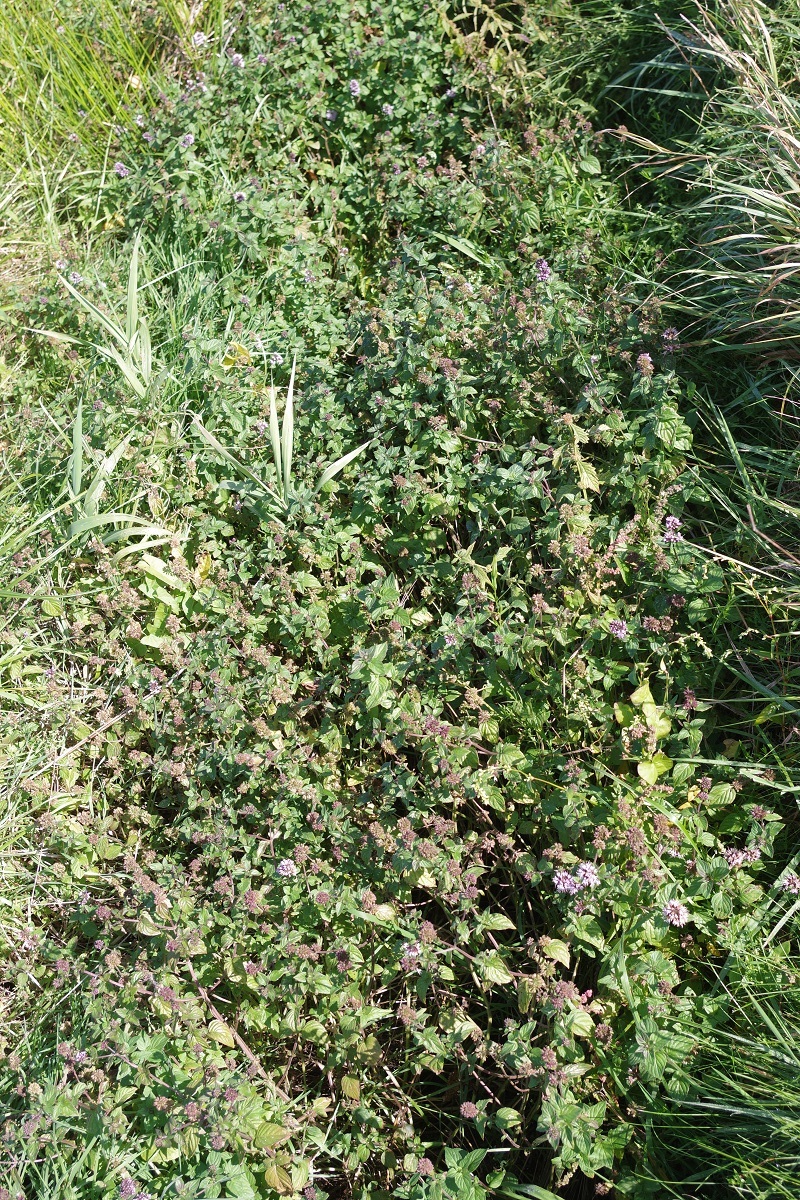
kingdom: Plantae
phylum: Tracheophyta
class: Magnoliopsida
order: Lamiales
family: Lamiaceae
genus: Mentha
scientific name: Mentha aquatica
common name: Water mint
